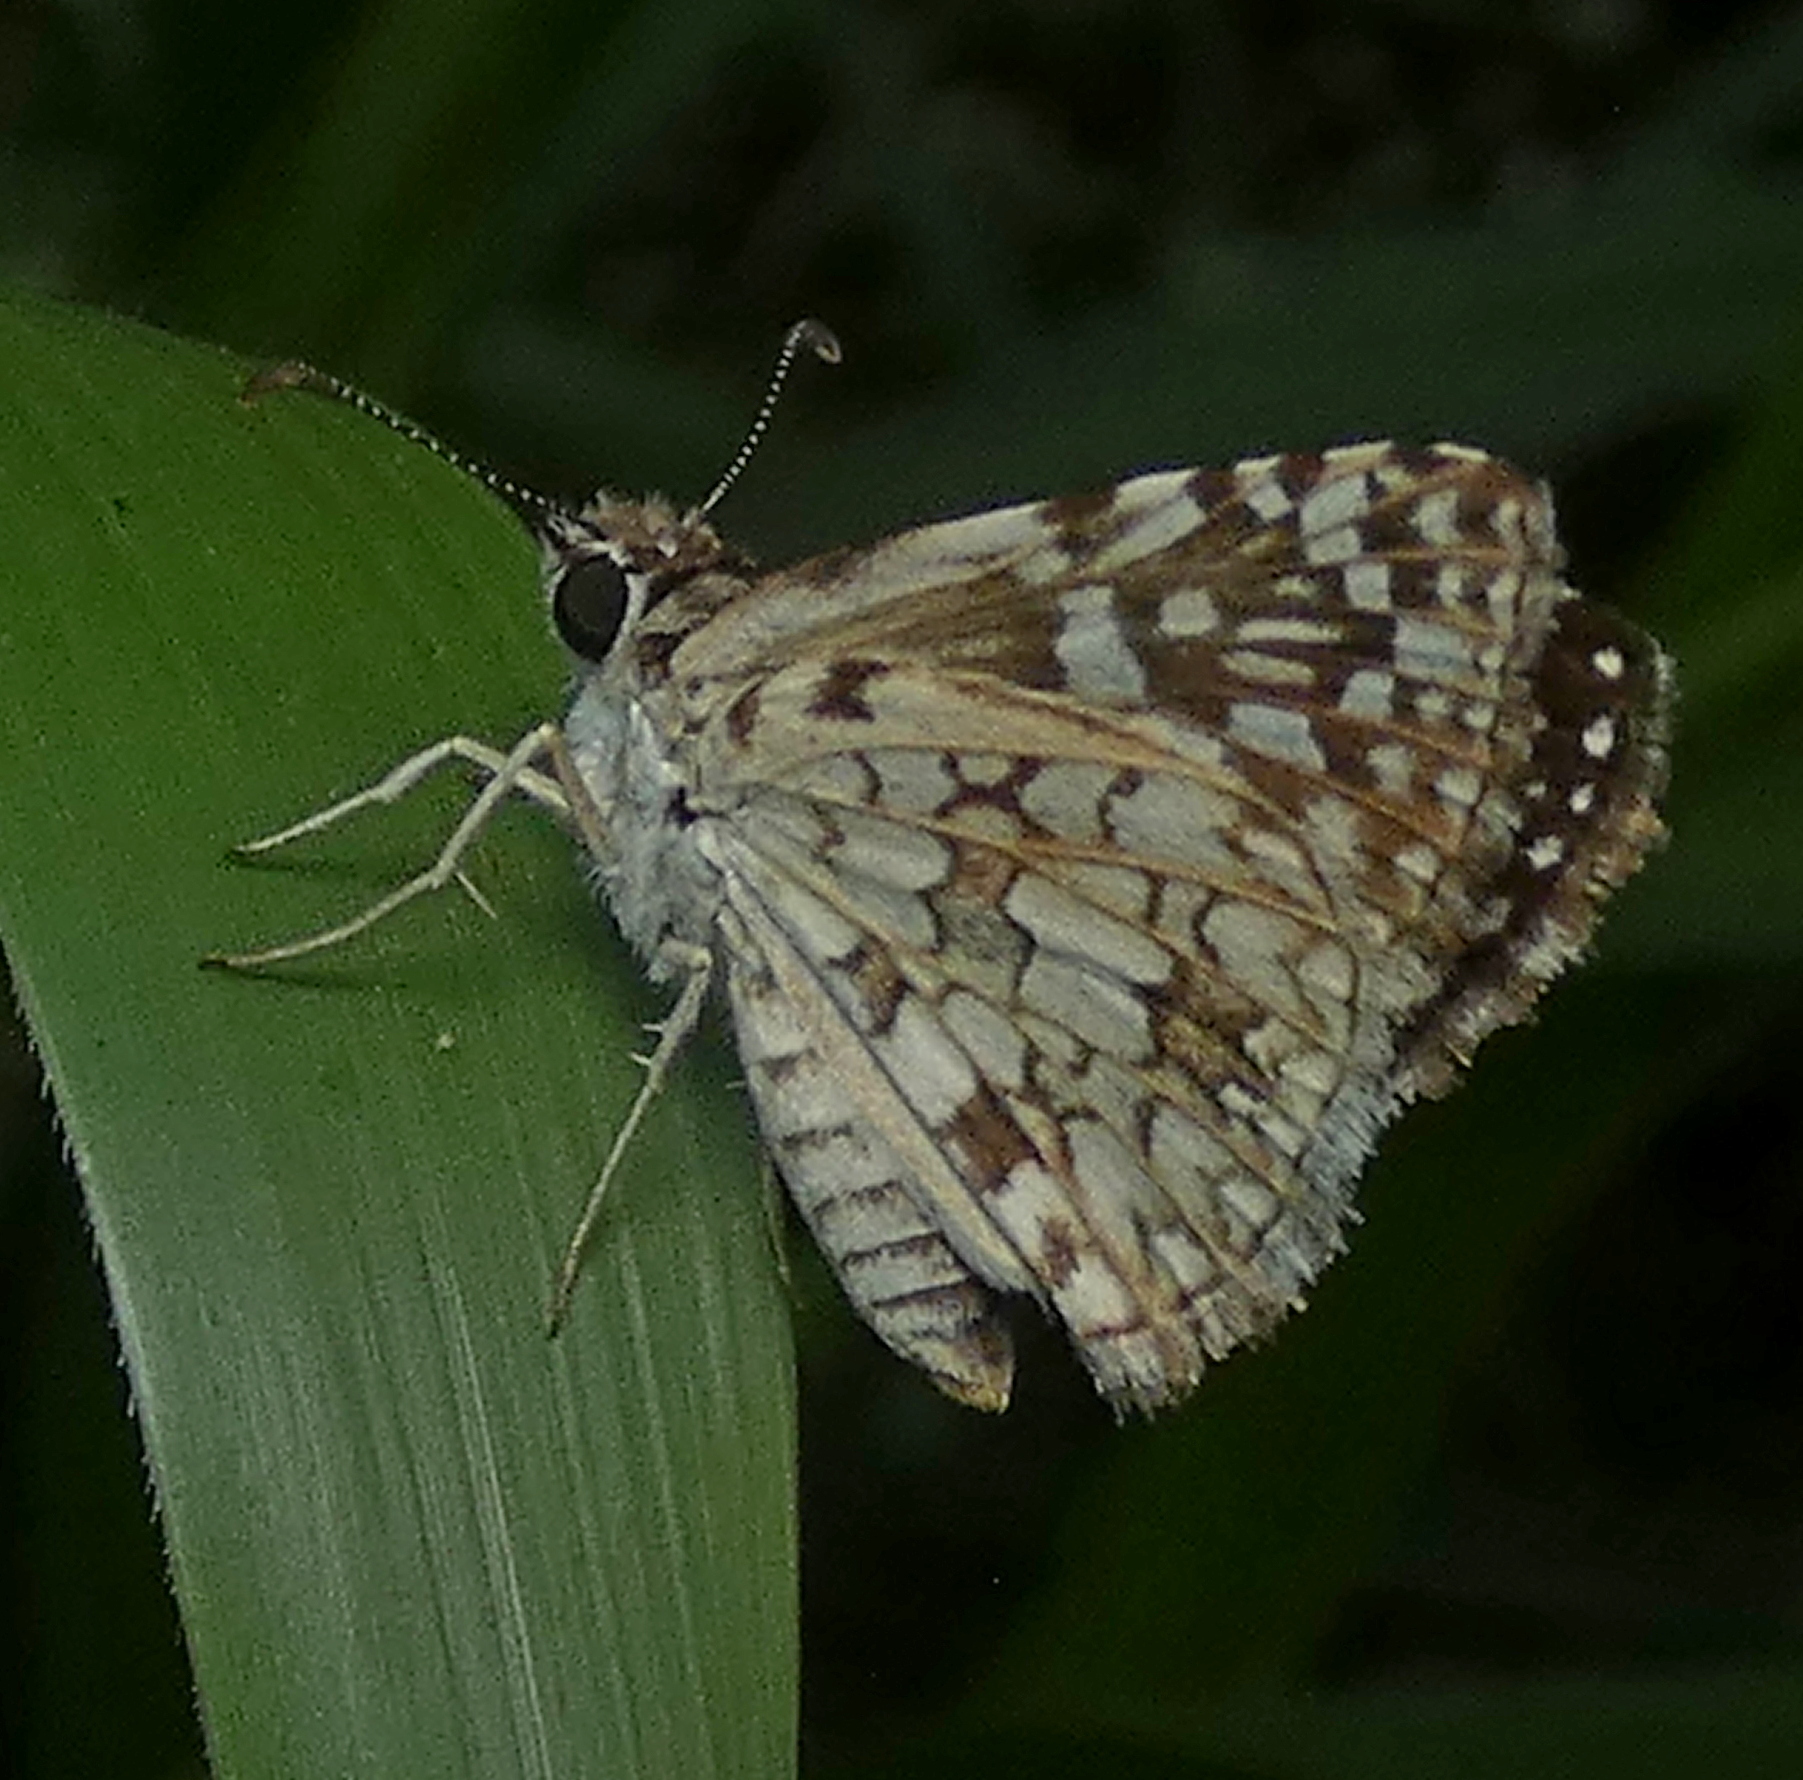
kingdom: Animalia
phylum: Arthropoda
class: Insecta
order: Lepidoptera
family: Hesperiidae
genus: Pyrgus
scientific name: Pyrgus oileus
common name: Tropical checkered-skipper
